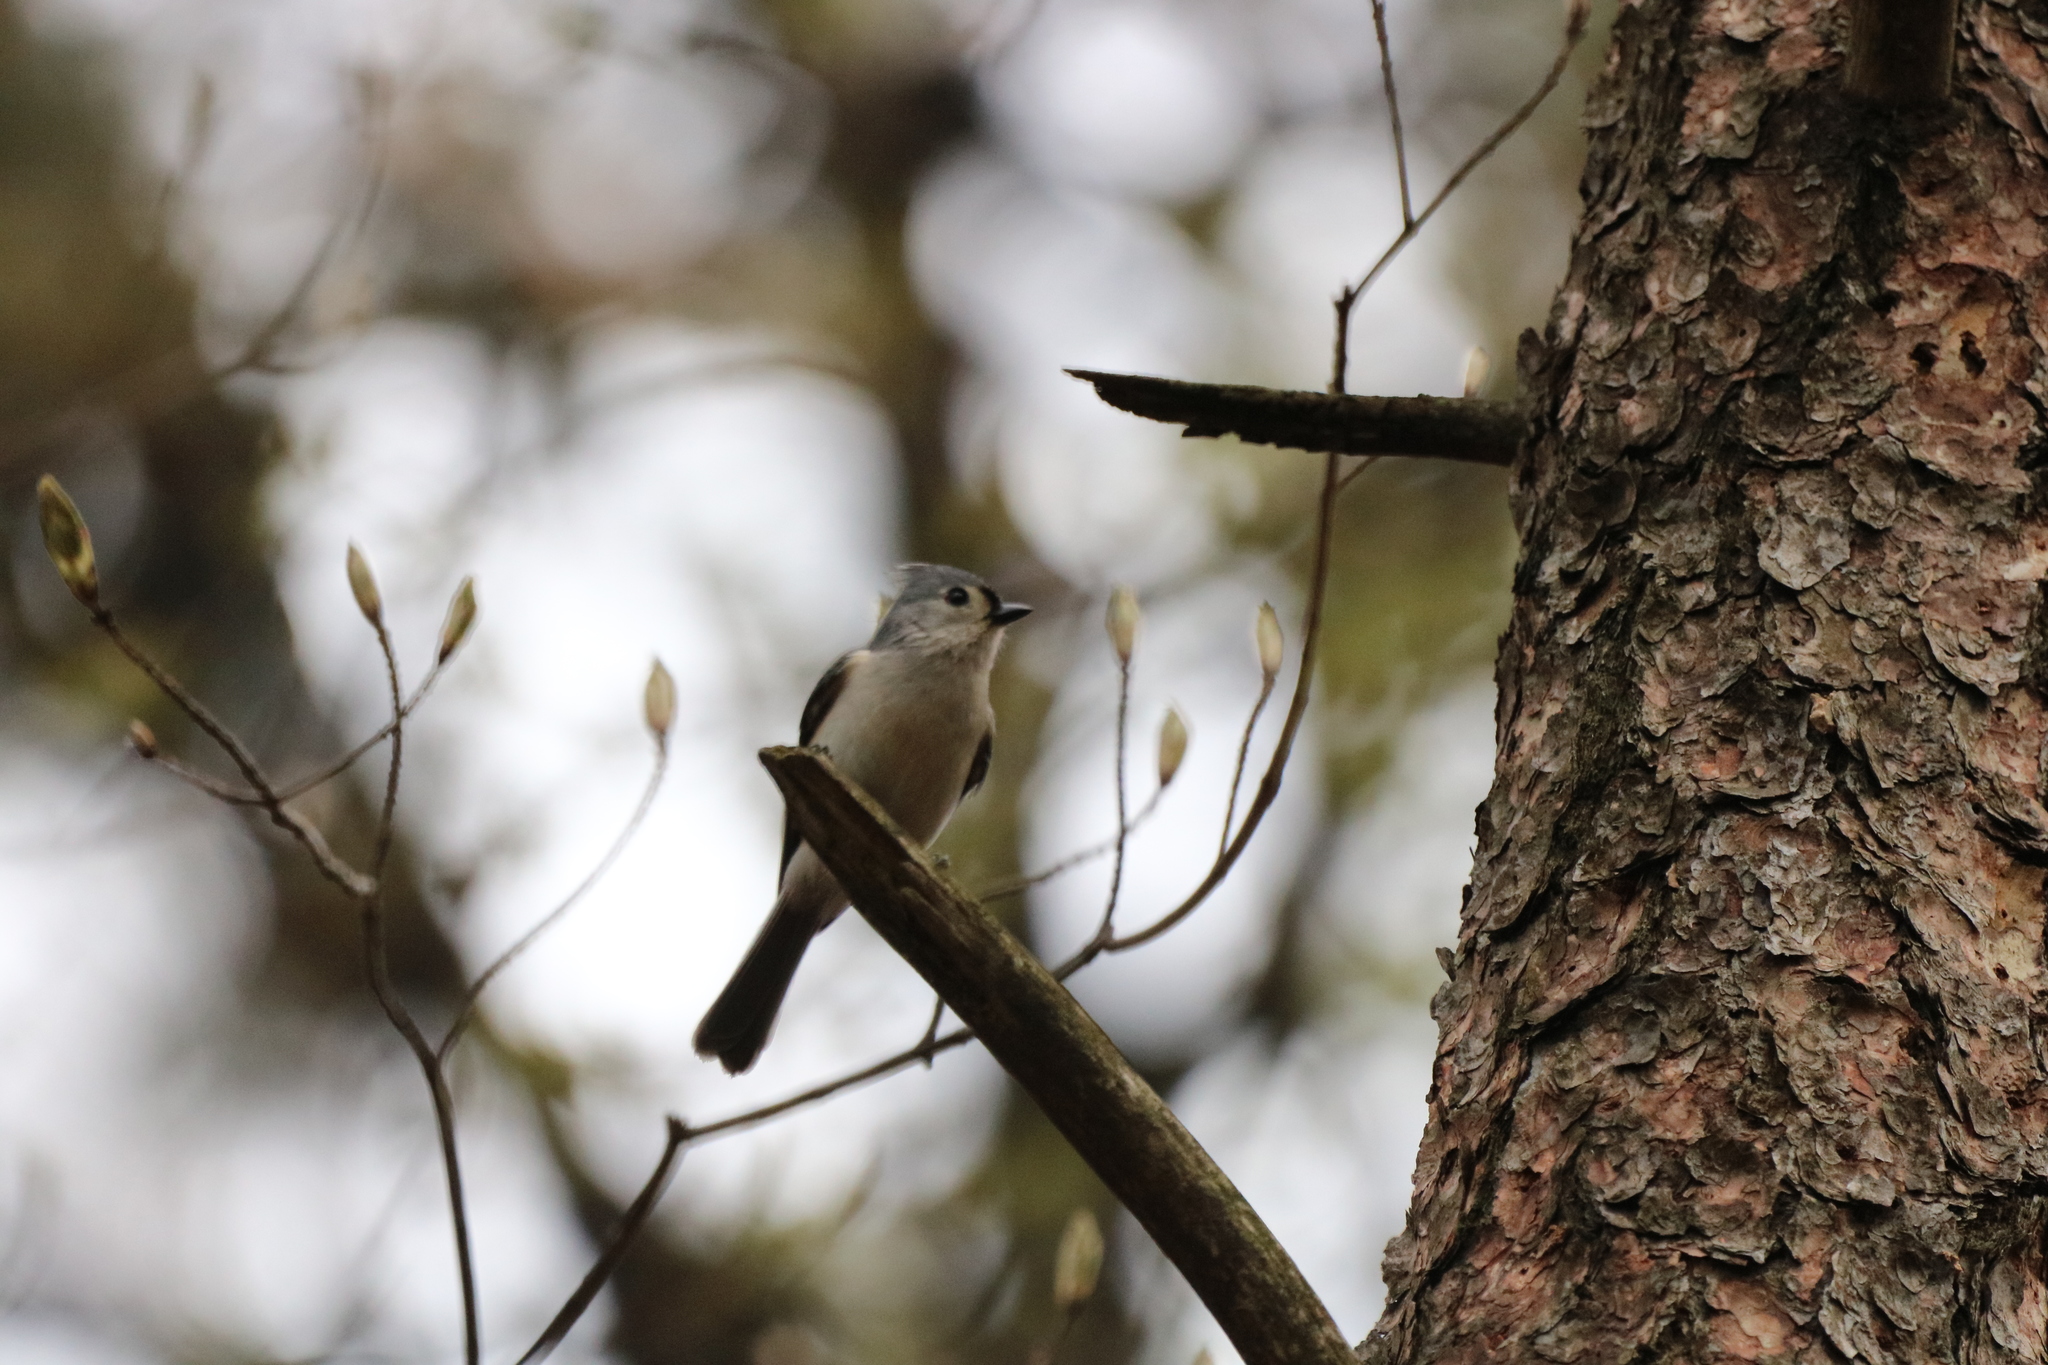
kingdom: Animalia
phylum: Chordata
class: Aves
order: Passeriformes
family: Paridae
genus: Baeolophus
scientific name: Baeolophus bicolor
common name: Tufted titmouse
